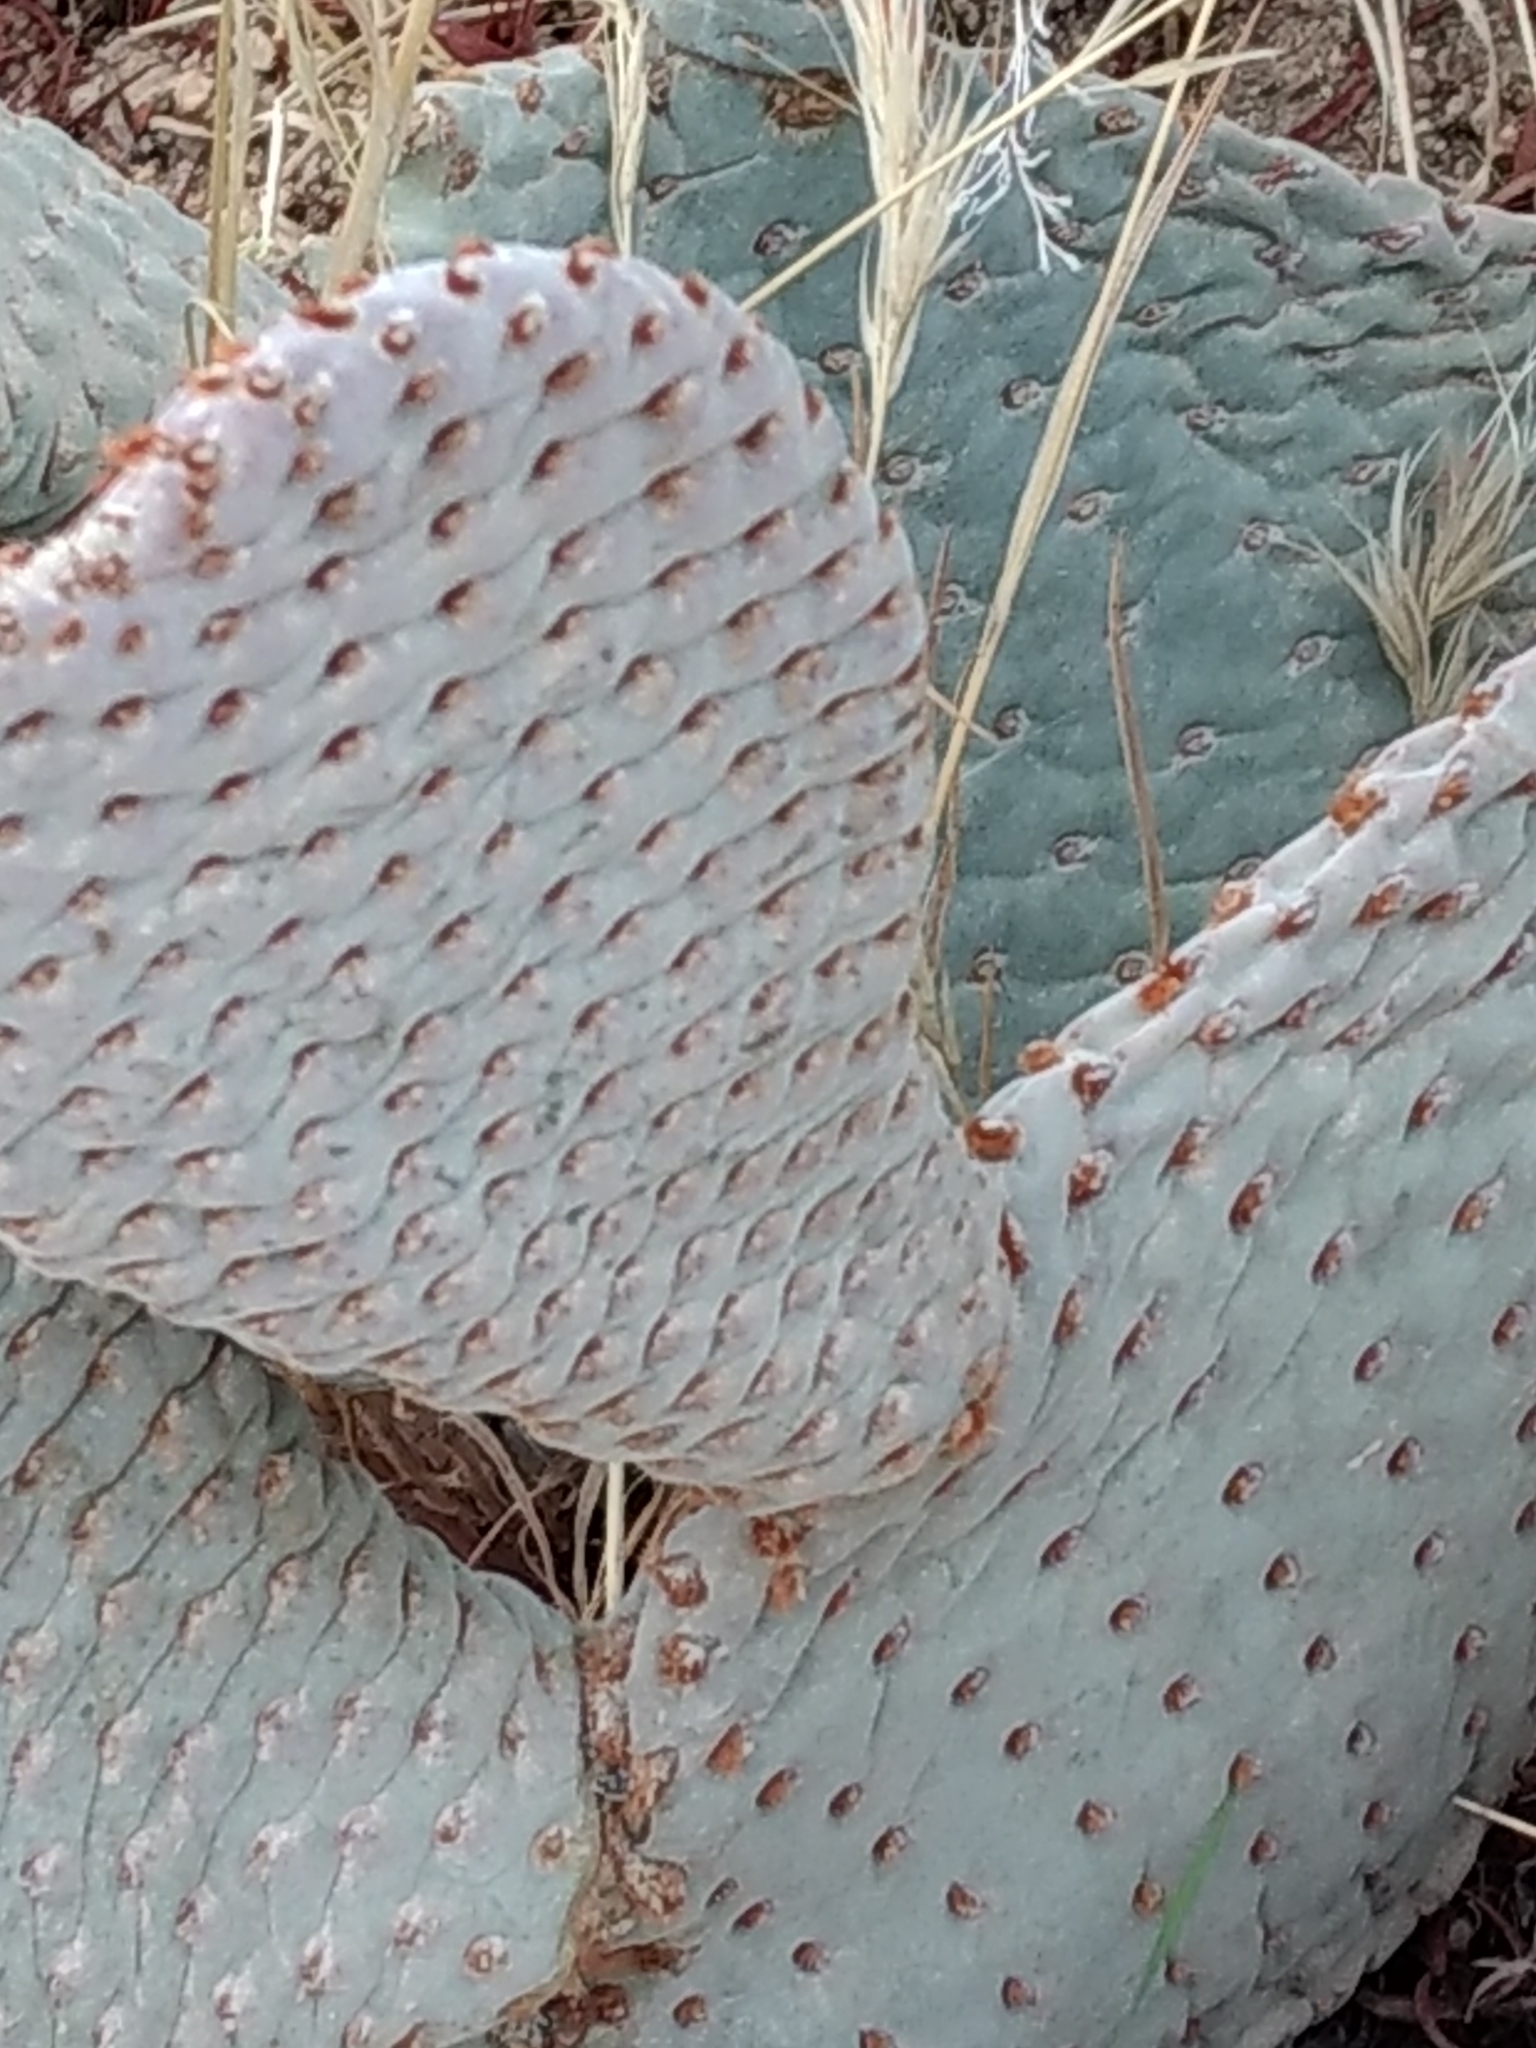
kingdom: Plantae
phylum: Tracheophyta
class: Magnoliopsida
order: Caryophyllales
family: Cactaceae
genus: Opuntia
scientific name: Opuntia basilaris
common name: Beavertail prickly-pear
